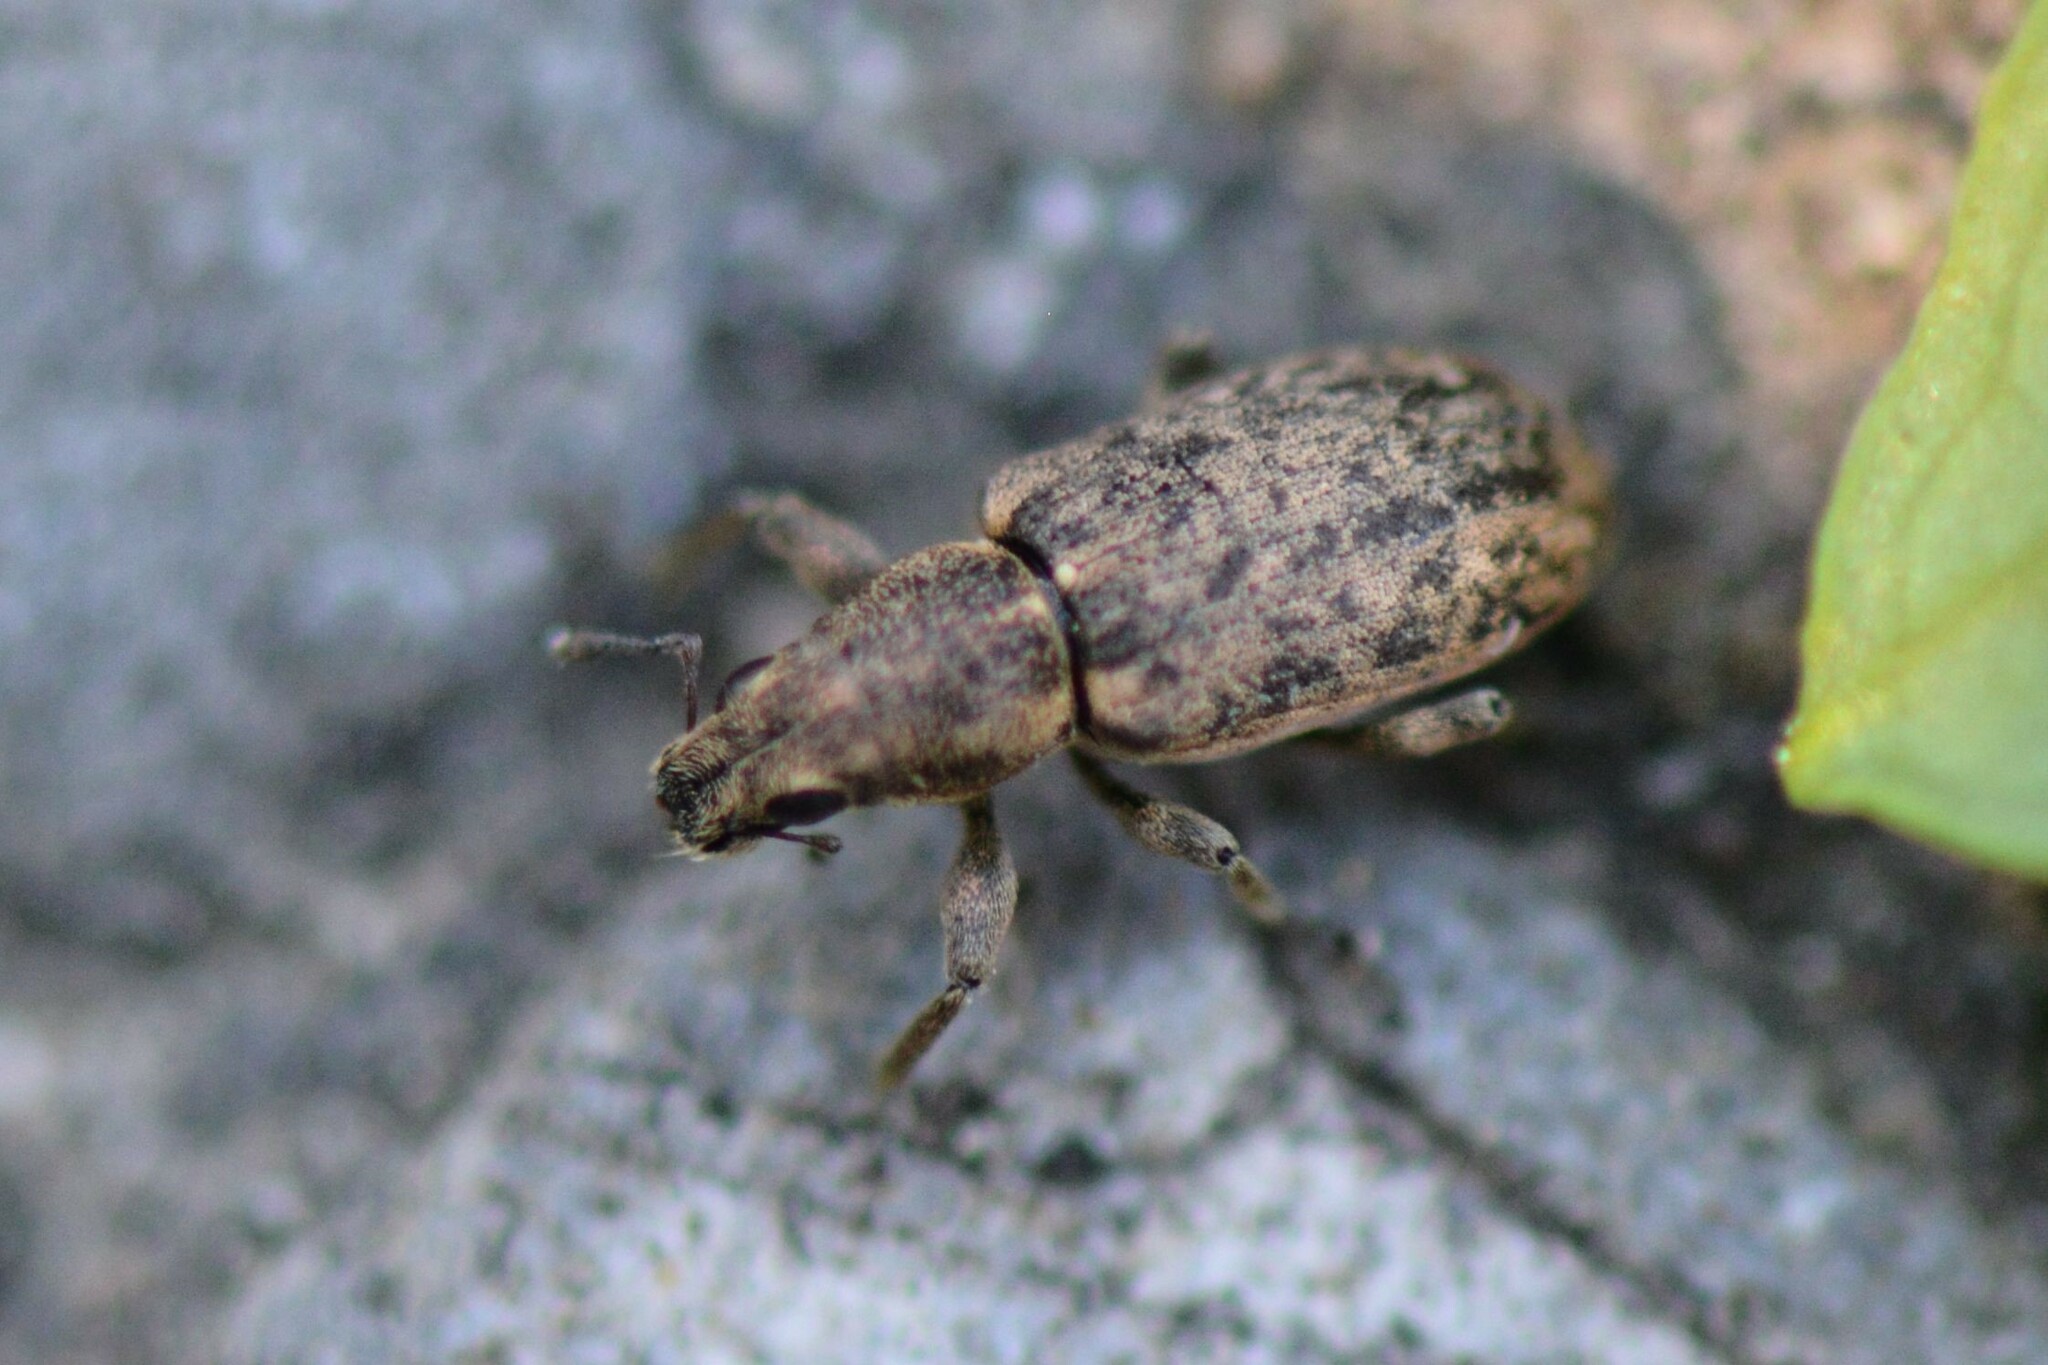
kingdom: Animalia
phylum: Arthropoda
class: Insecta
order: Coleoptera
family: Curculionidae
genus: Sitona
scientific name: Sitona cylindricollis
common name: Weevil
